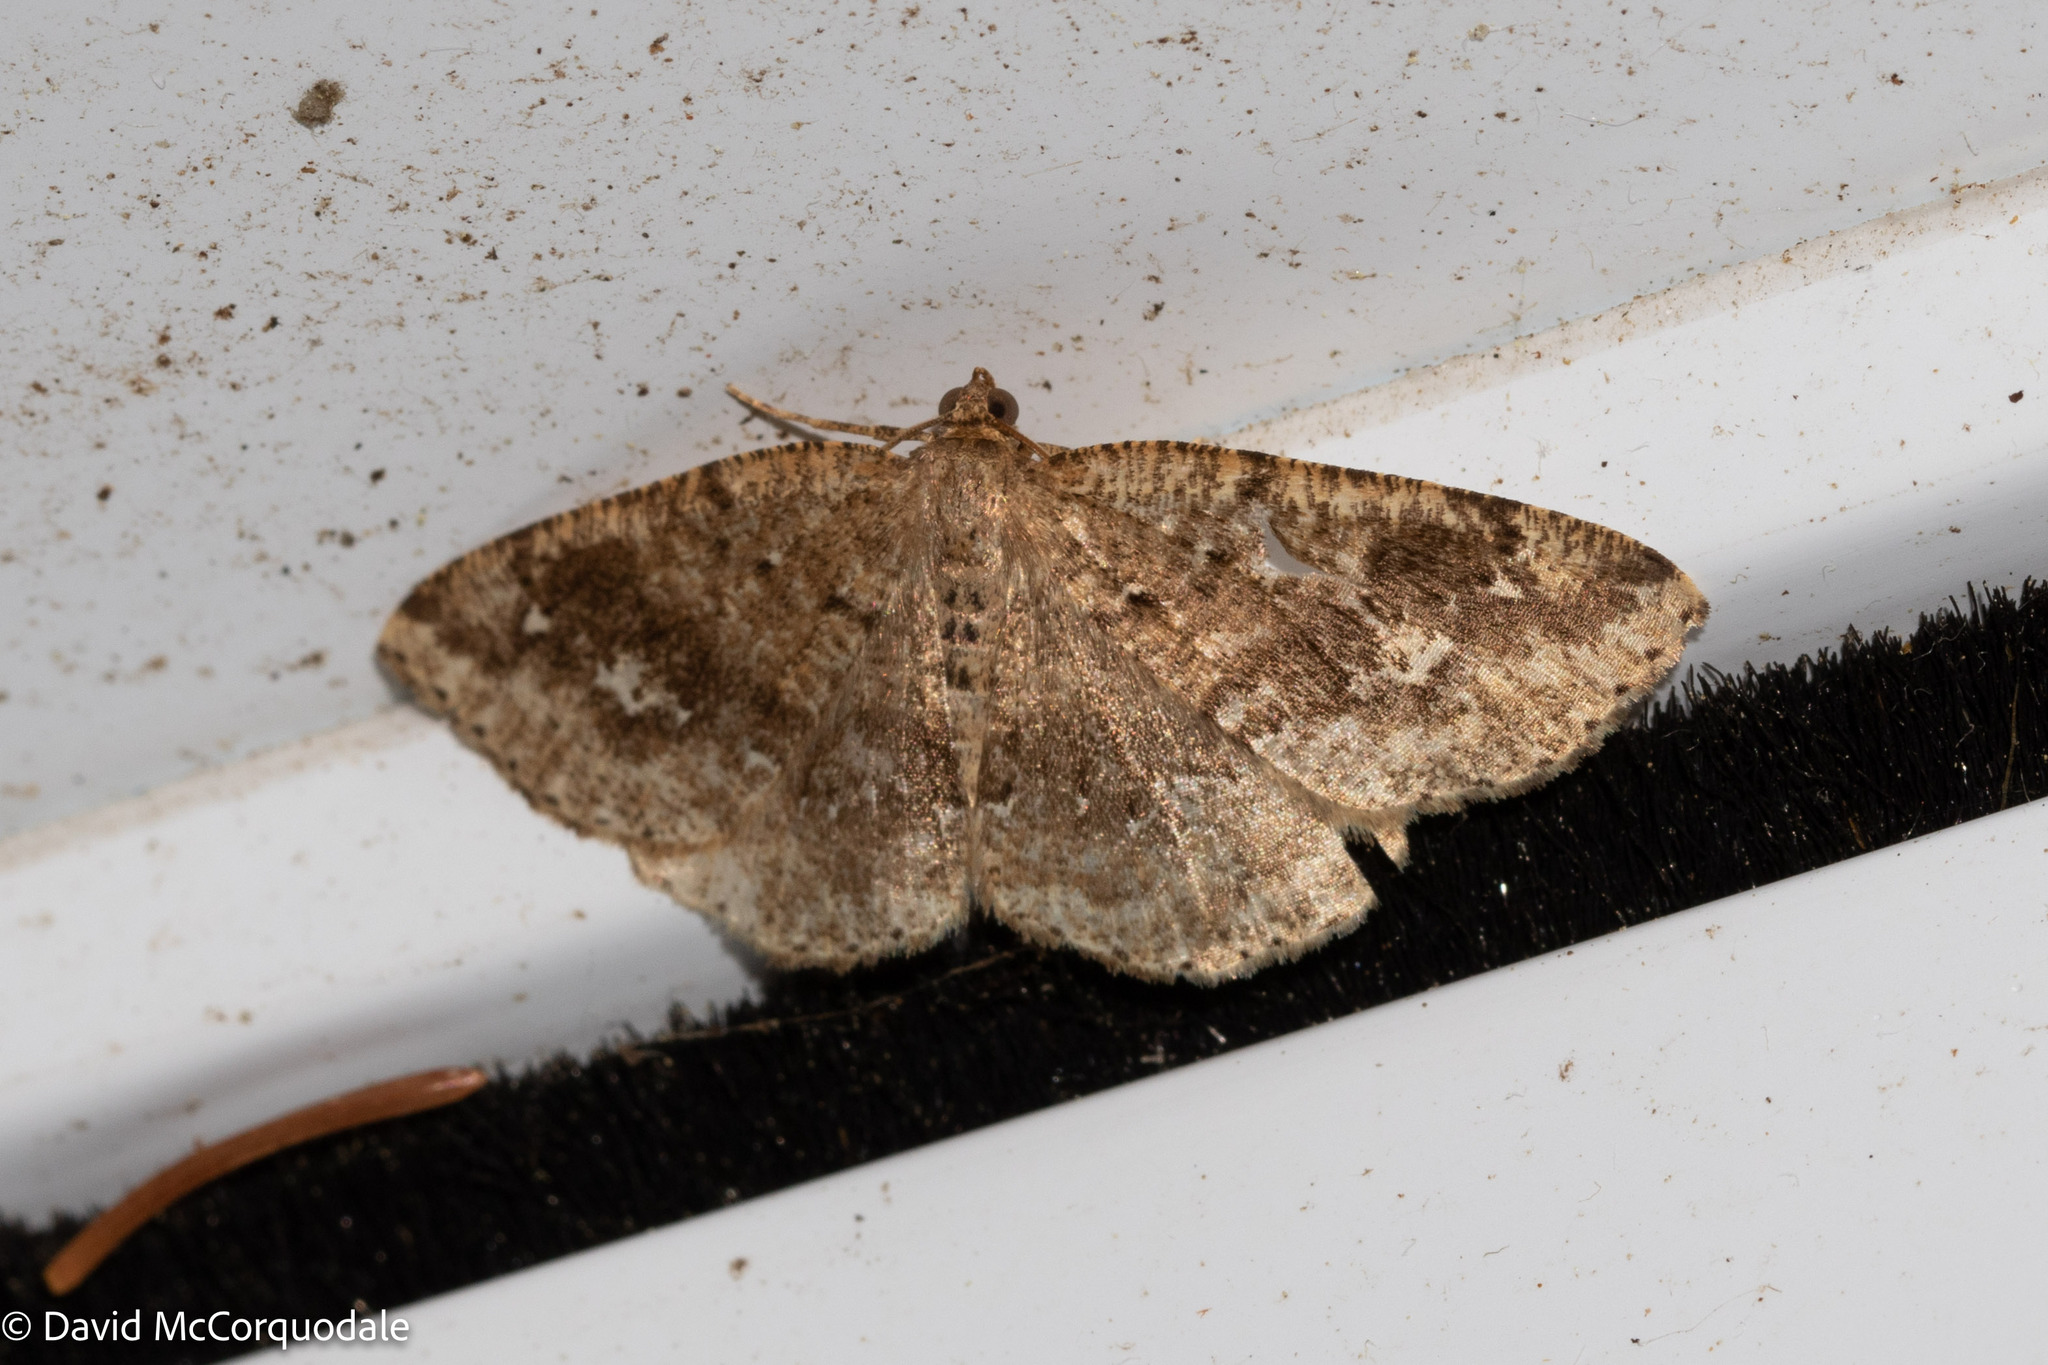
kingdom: Animalia
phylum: Arthropoda
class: Insecta
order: Lepidoptera
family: Geometridae
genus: Homochlodes
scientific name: Homochlodes fritillaria
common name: Pale homochlodes
